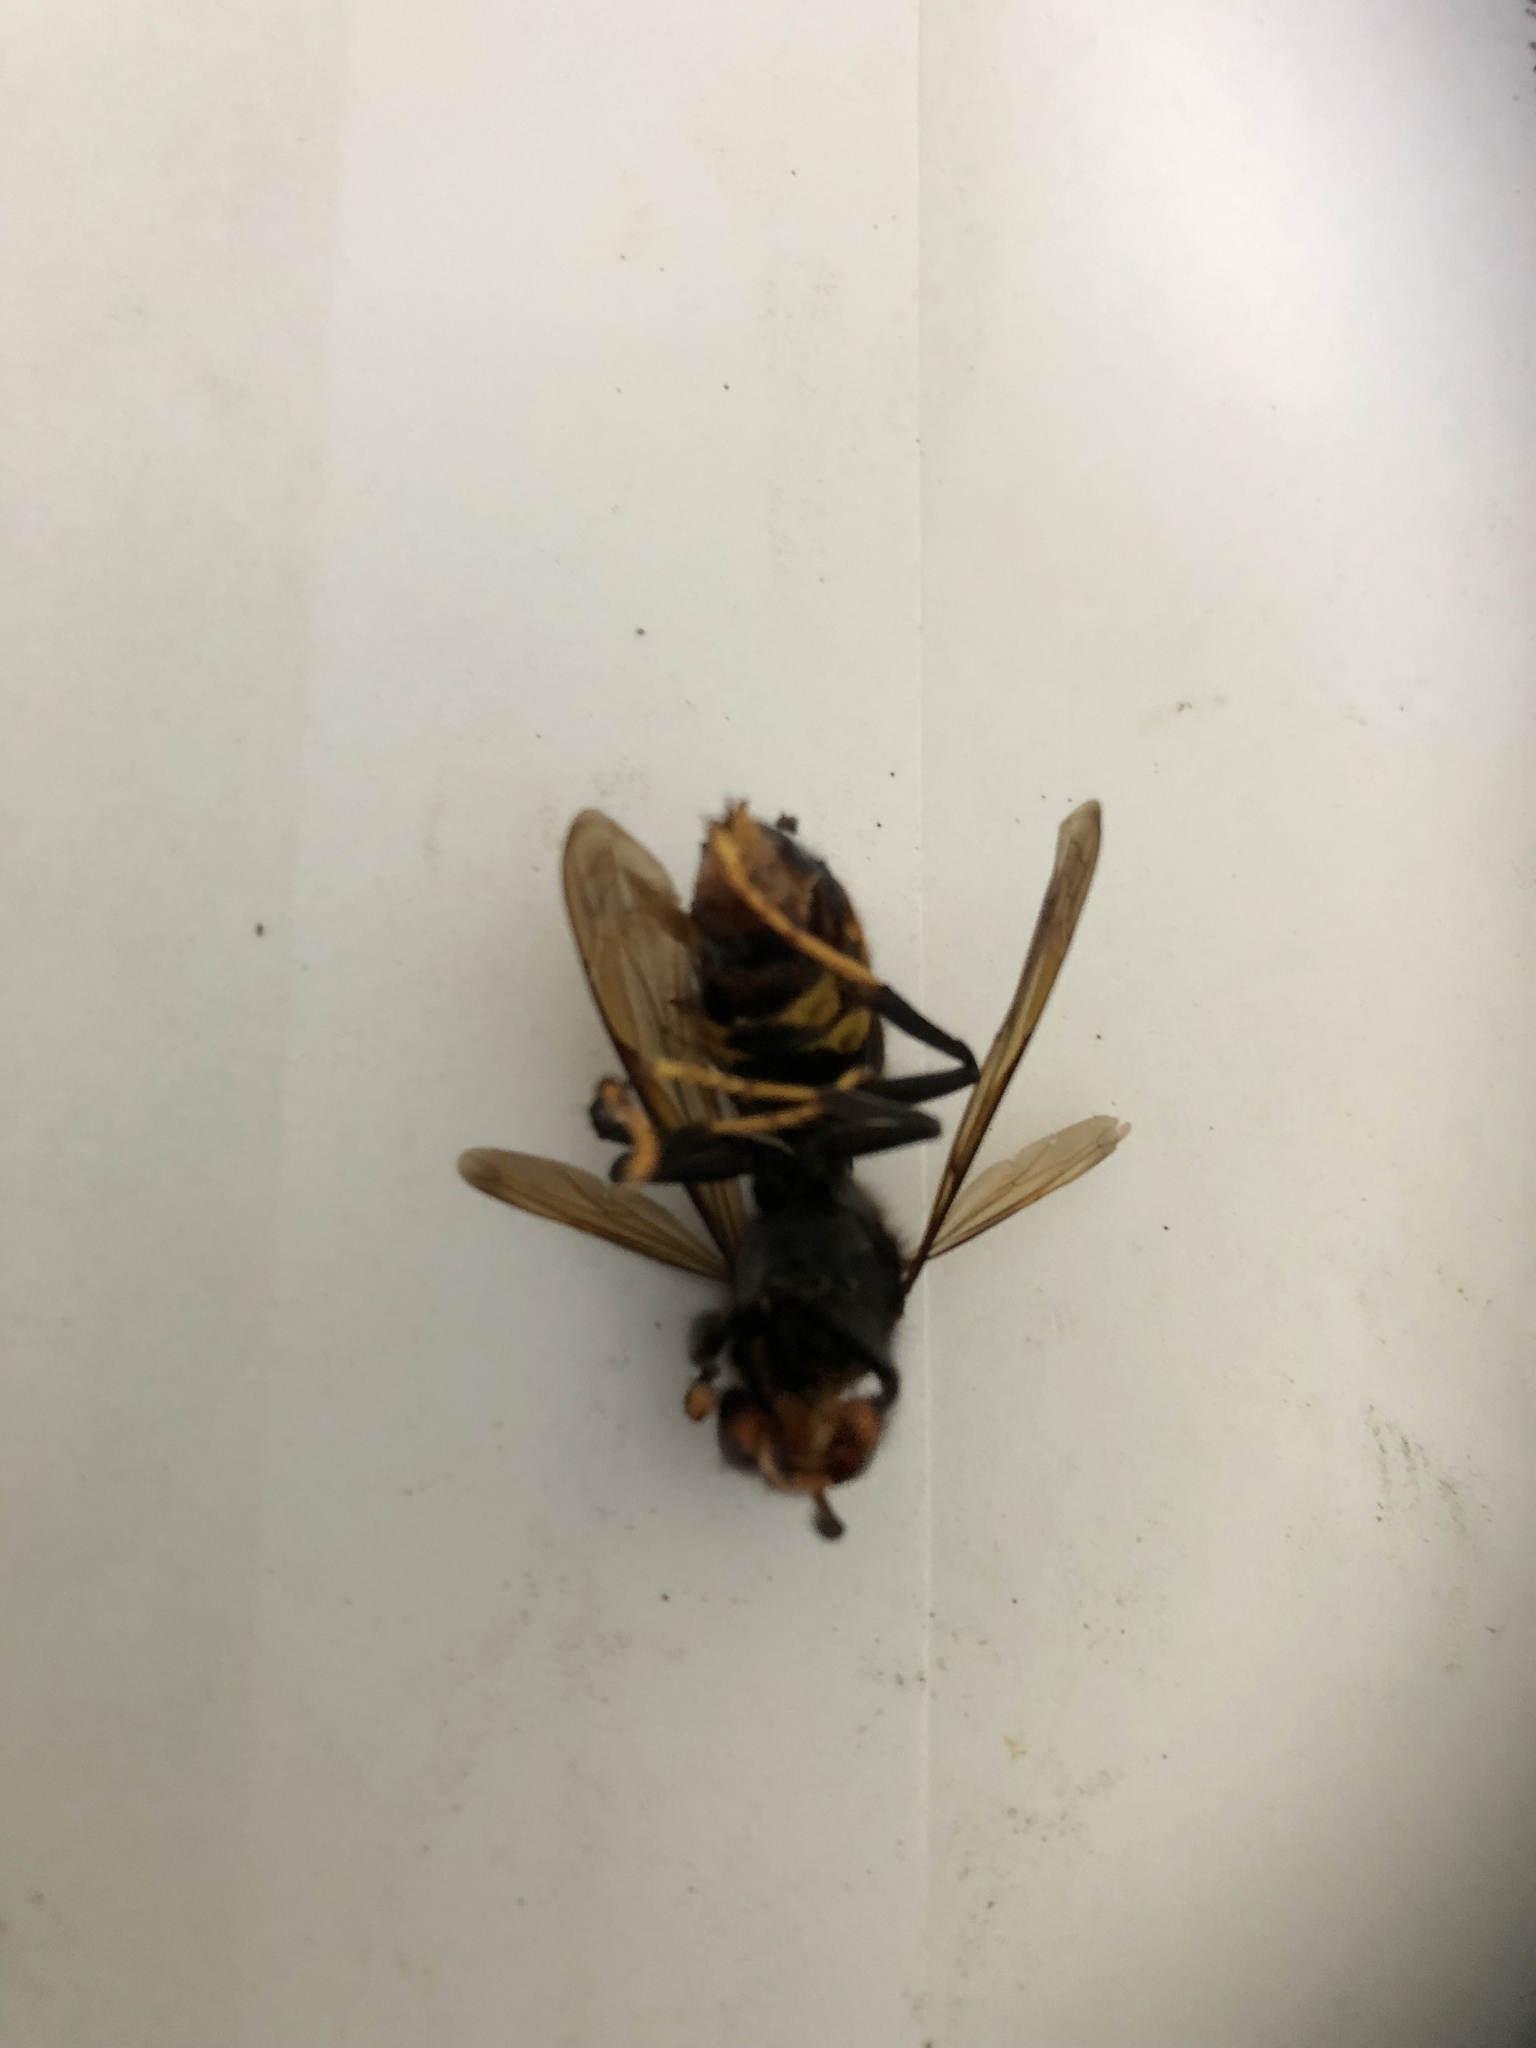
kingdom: Animalia
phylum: Arthropoda
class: Insecta
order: Hymenoptera
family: Vespidae
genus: Vespa
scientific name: Vespa velutina
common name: Asian hornet
